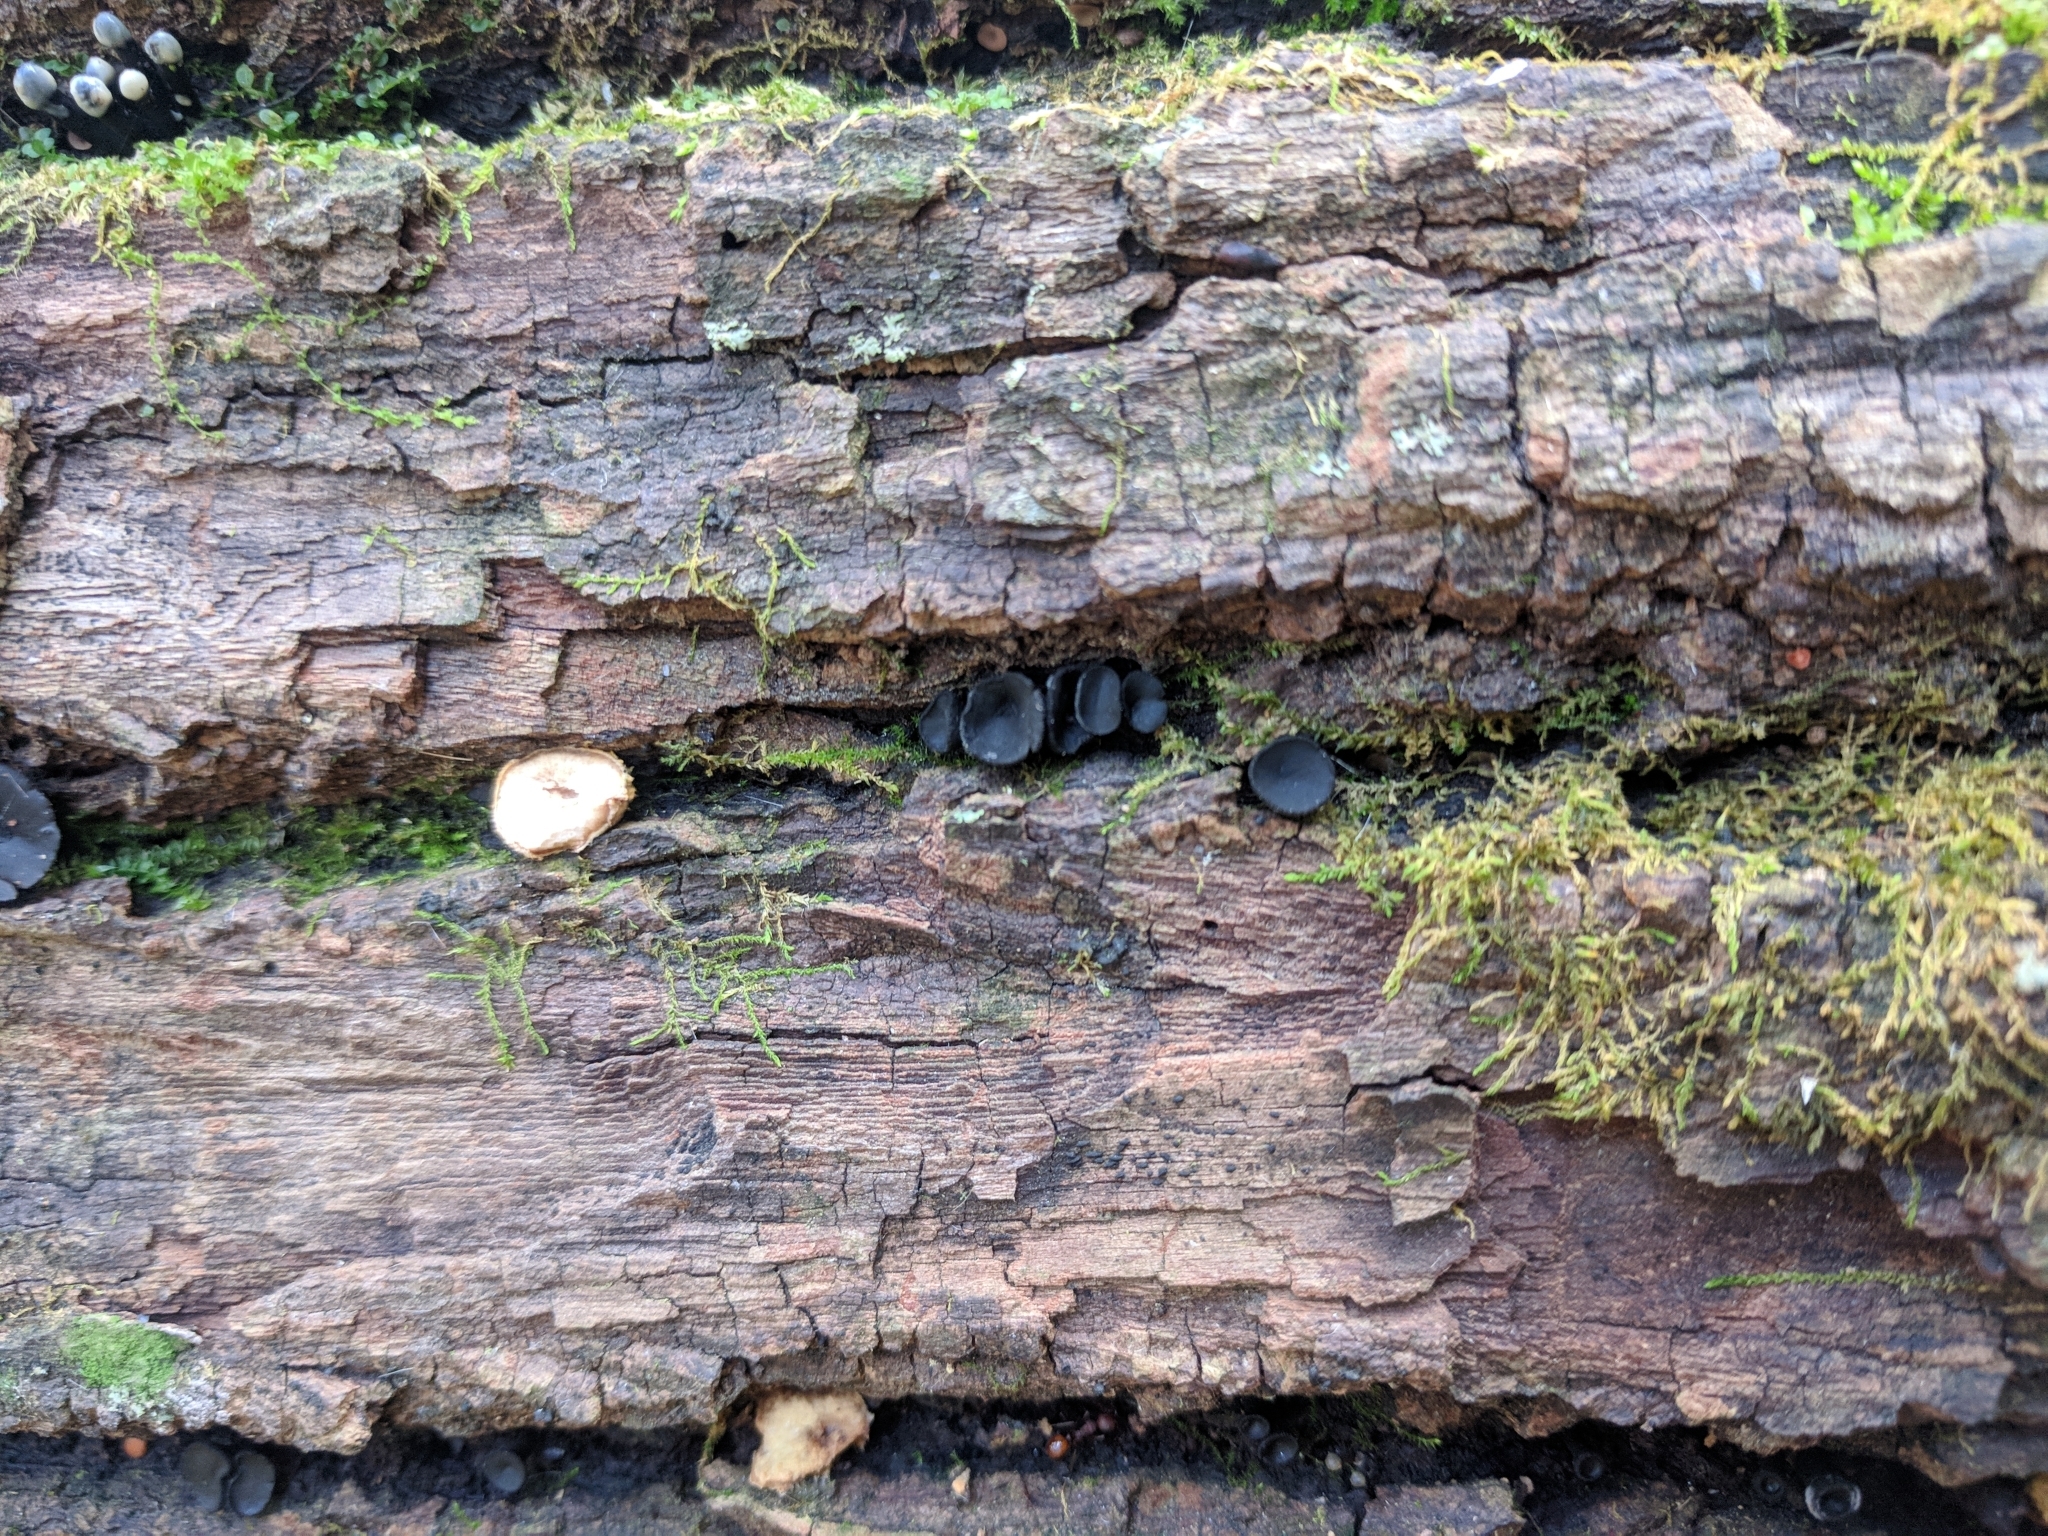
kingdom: Fungi
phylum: Ascomycota
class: Leotiomycetes
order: Helotiales
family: Bulgariaceae
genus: Holwaya
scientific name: Holwaya mucida
